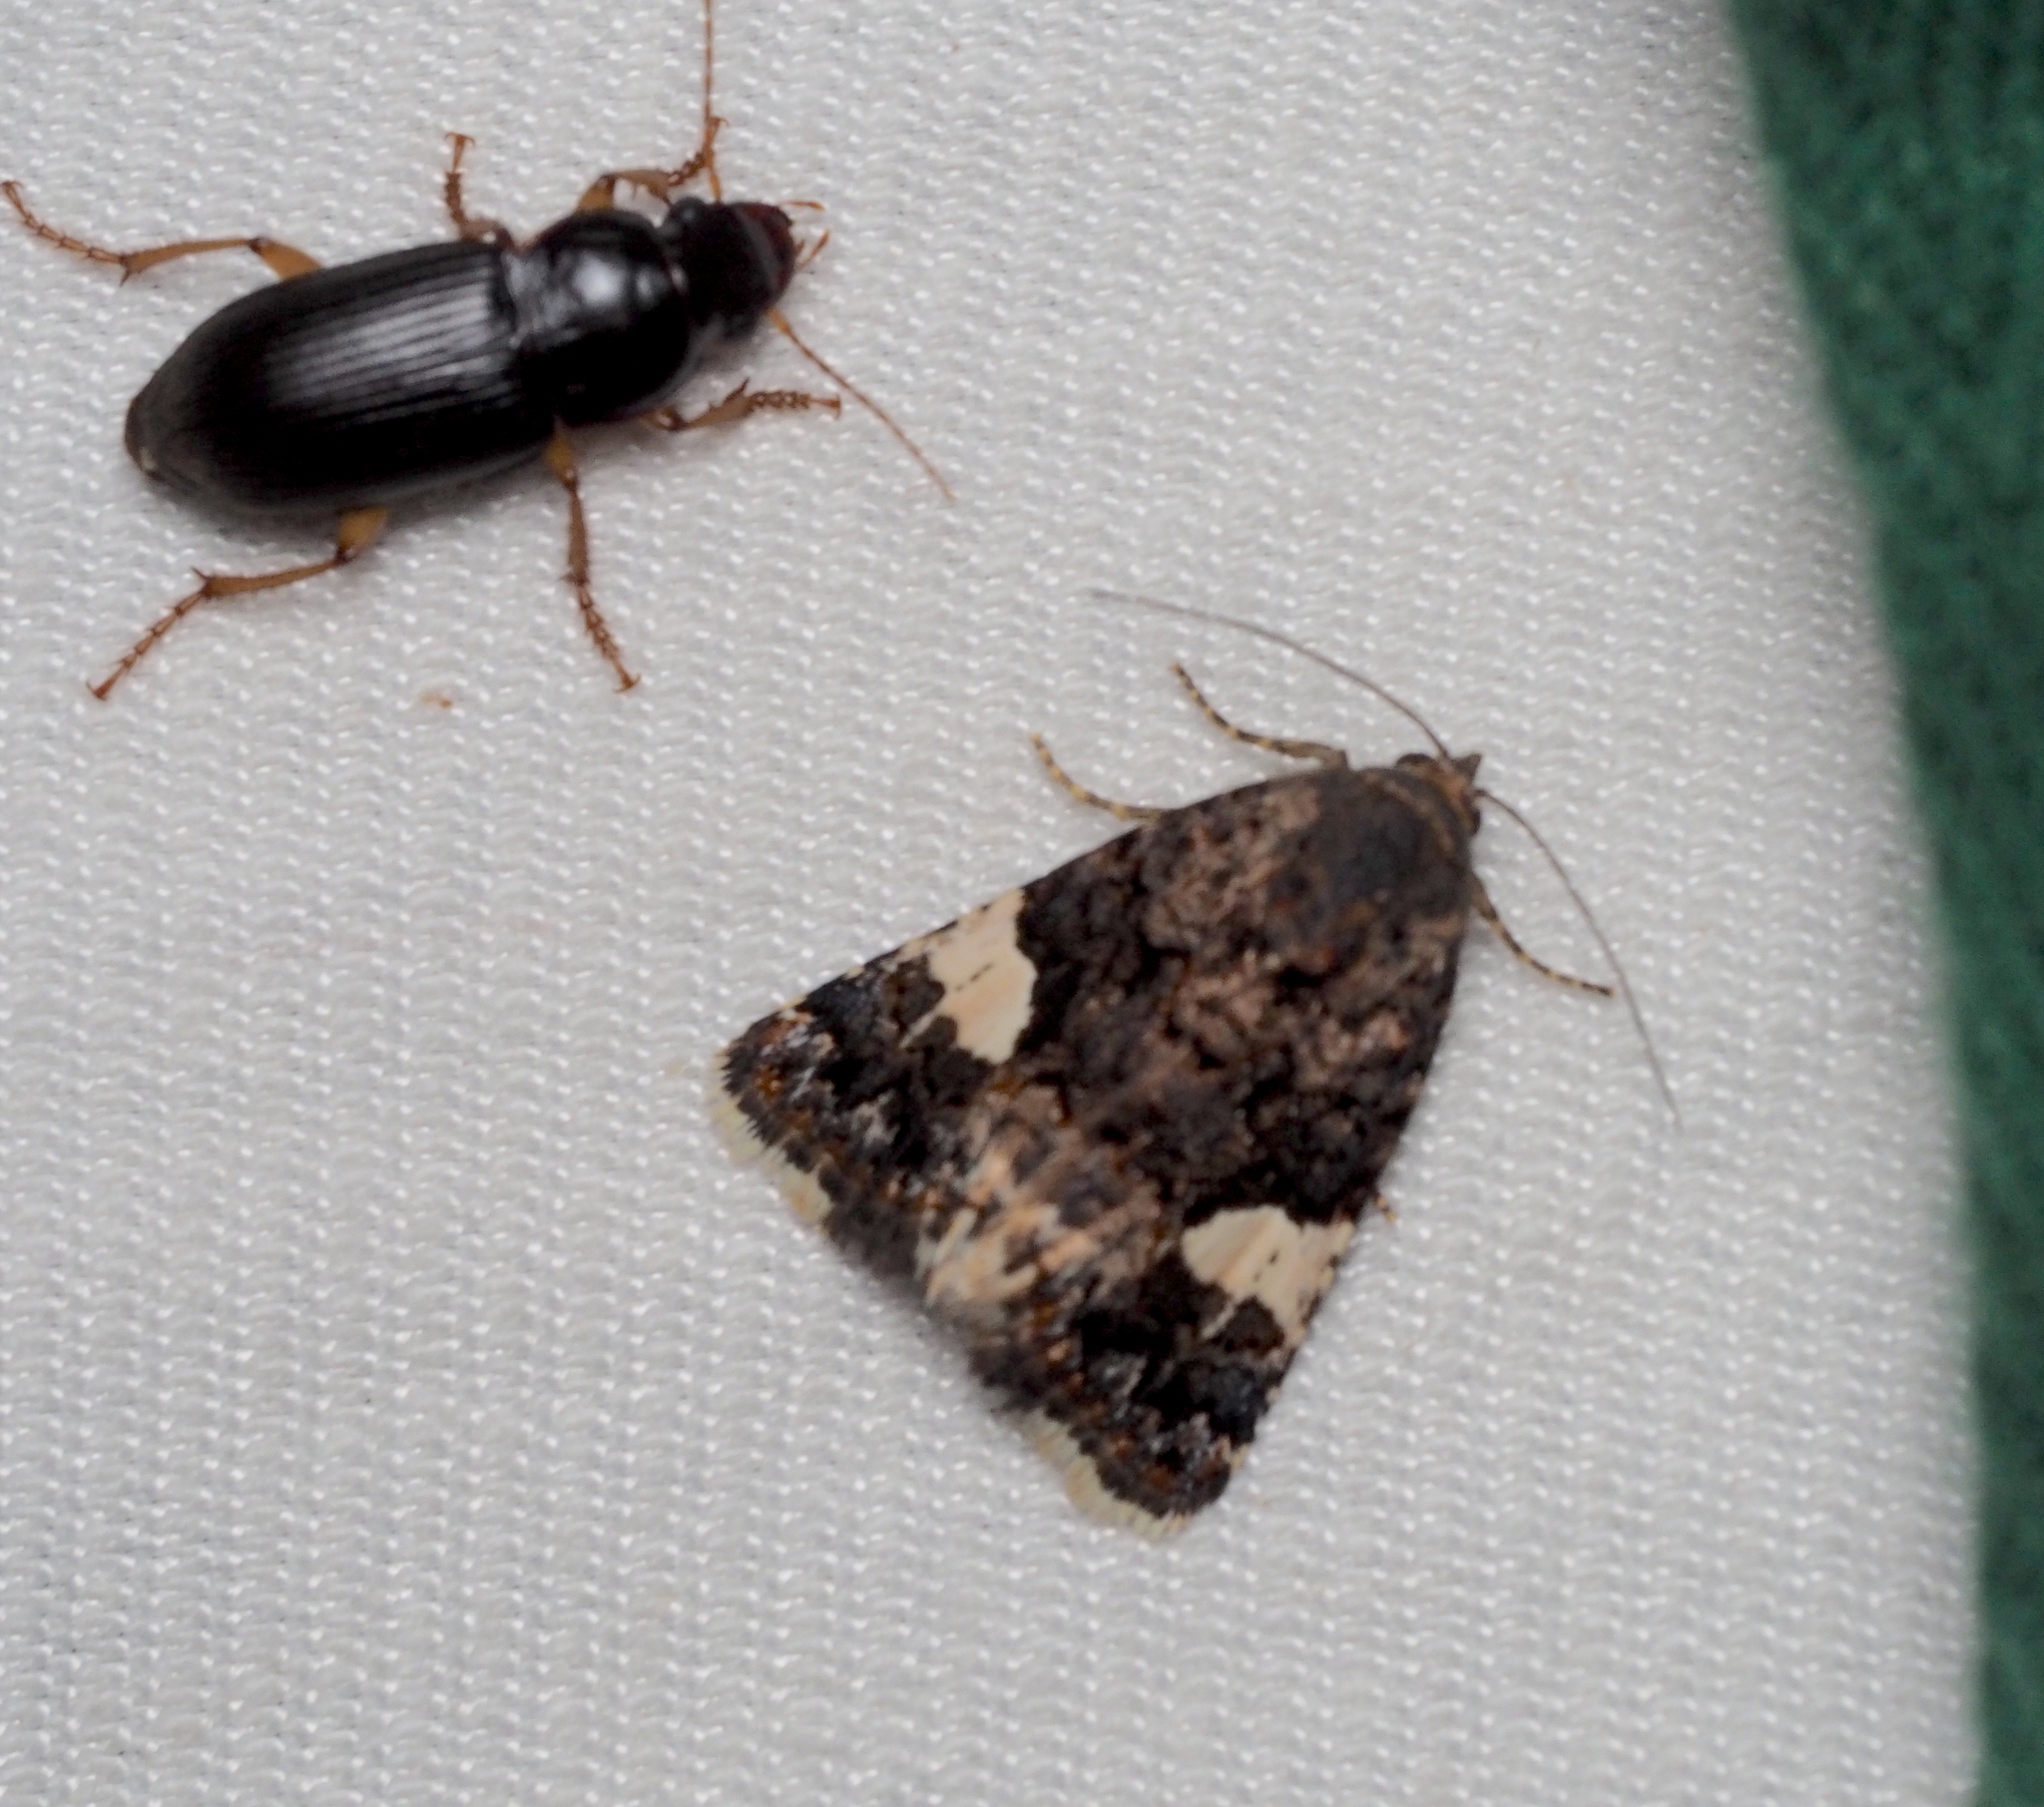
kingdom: Animalia
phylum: Arthropoda
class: Insecta
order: Lepidoptera
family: Erebidae
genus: Tyta
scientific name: Tyta luctuosa
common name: Four-spotted
